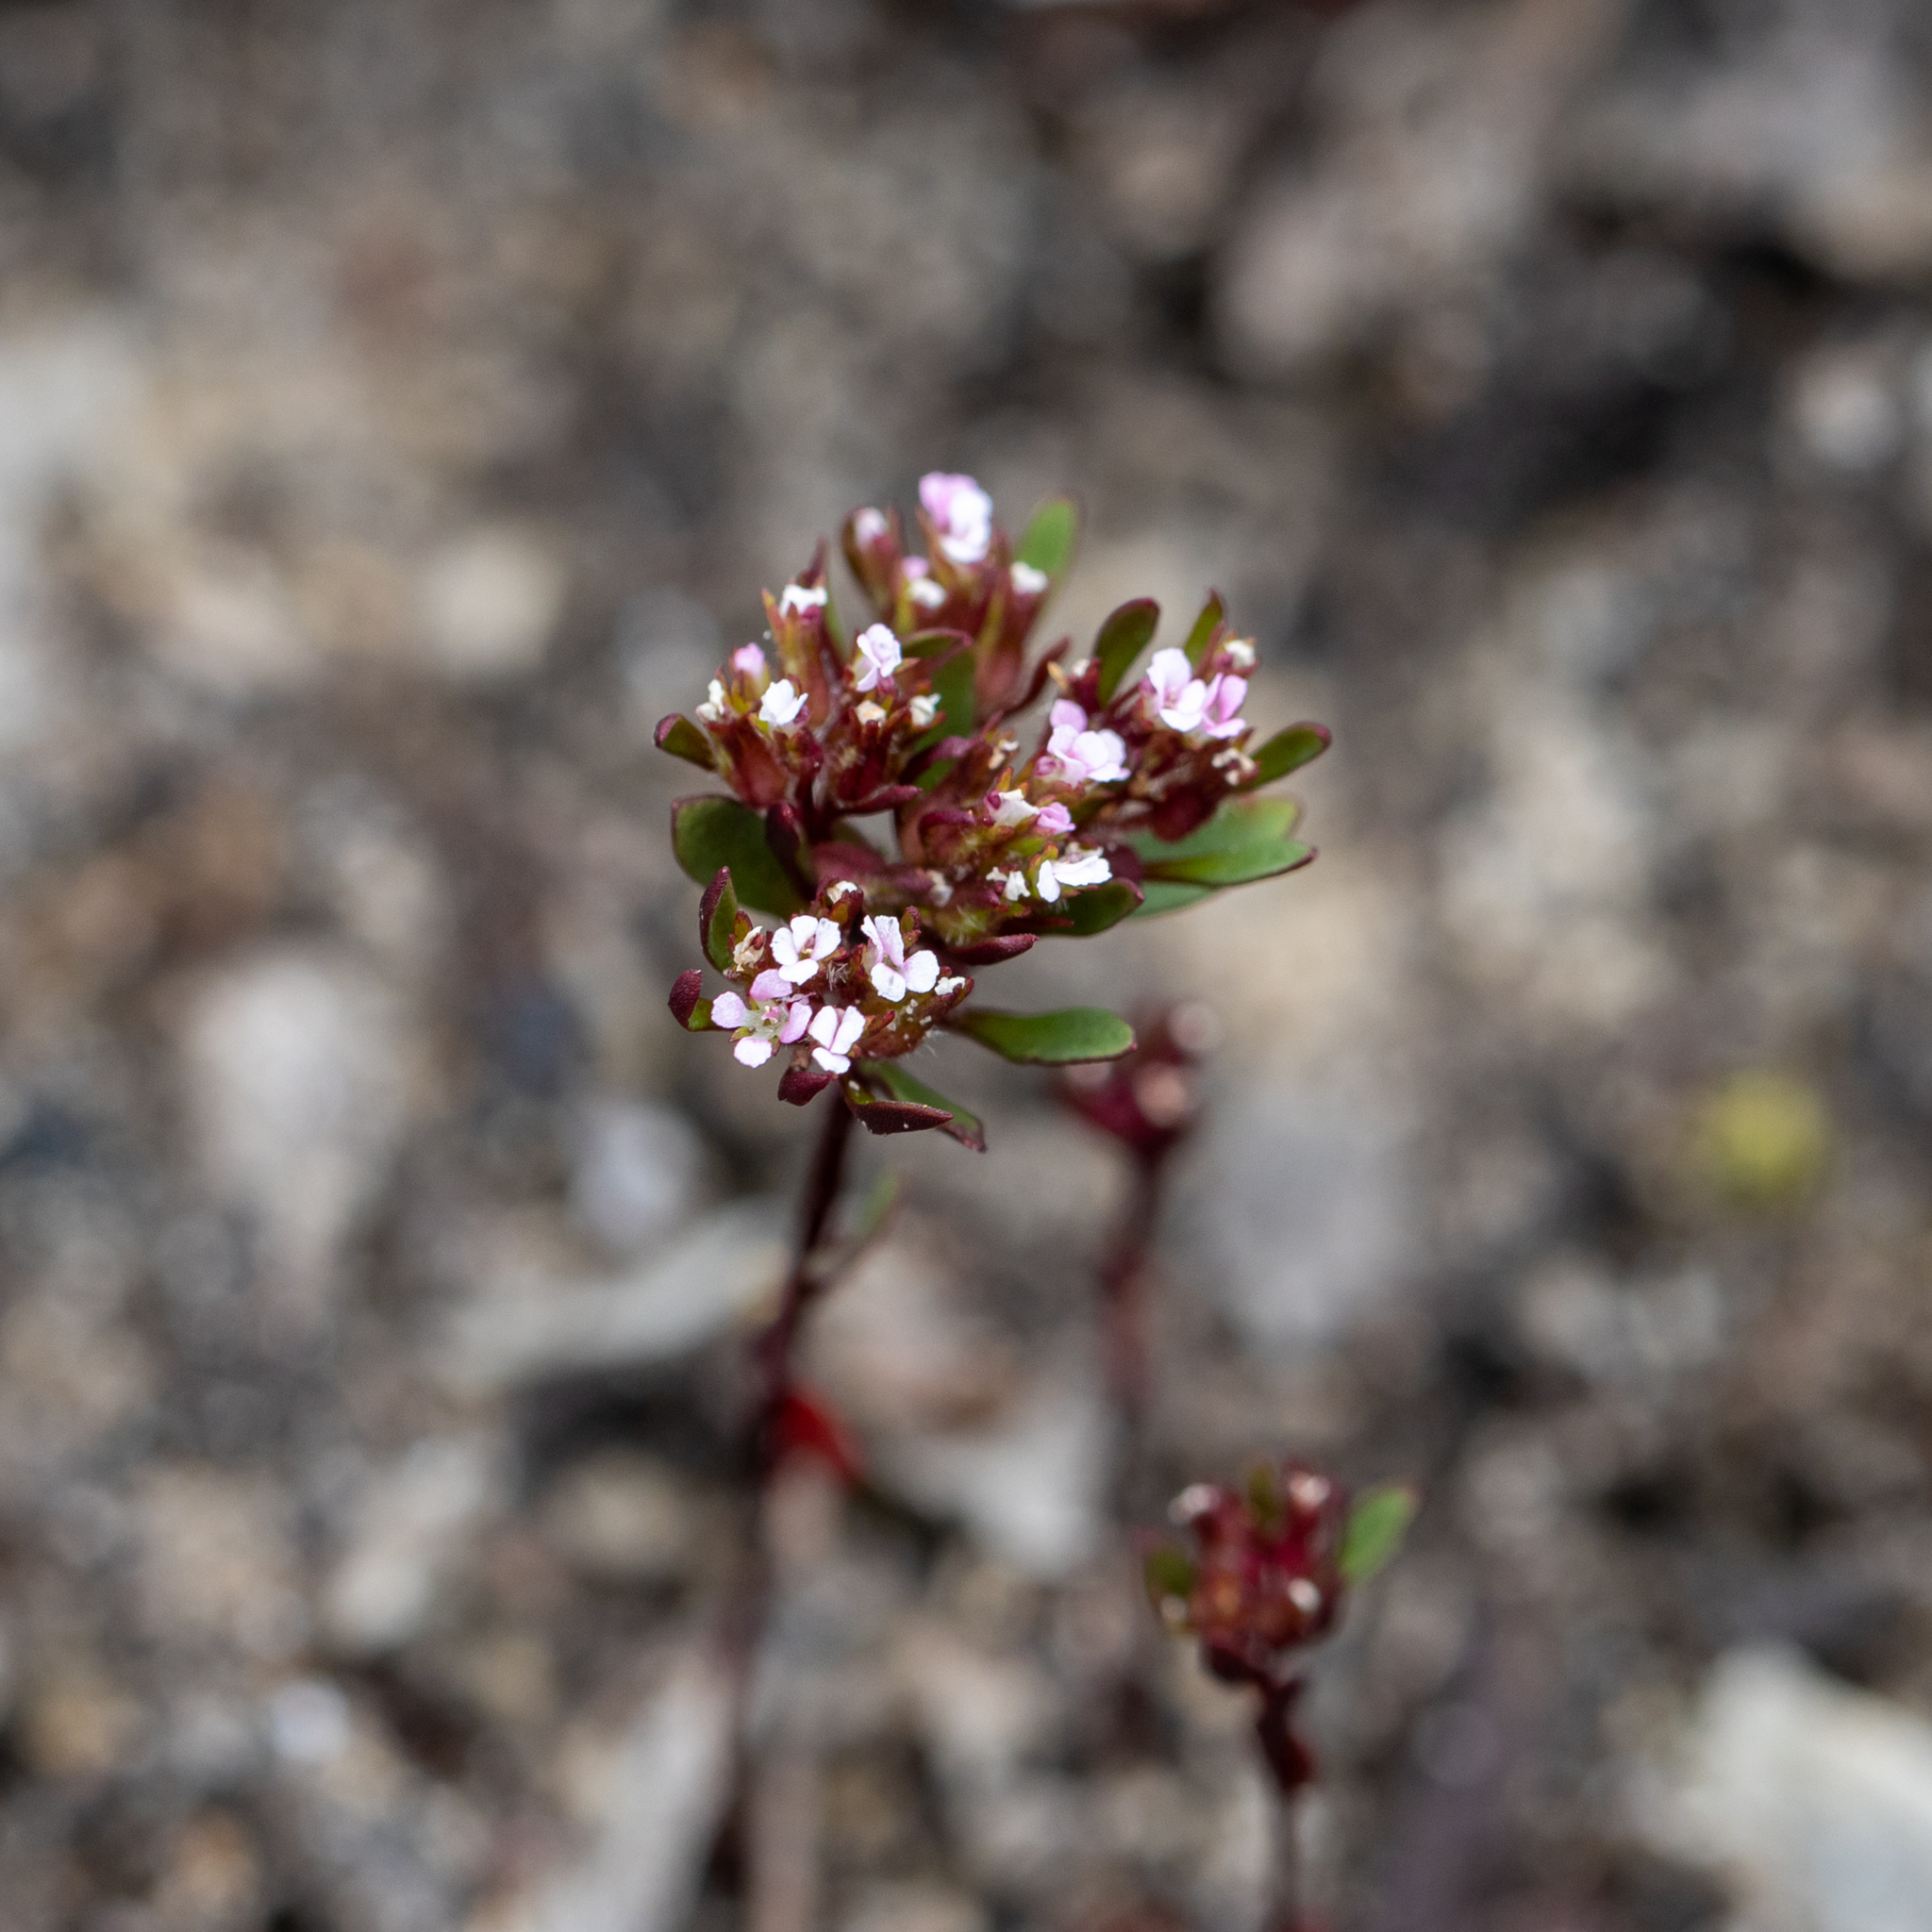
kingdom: Plantae
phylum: Tracheophyta
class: Magnoliopsida
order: Asterales
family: Stylidiaceae
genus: Levenhookia
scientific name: Levenhookia pusilla
